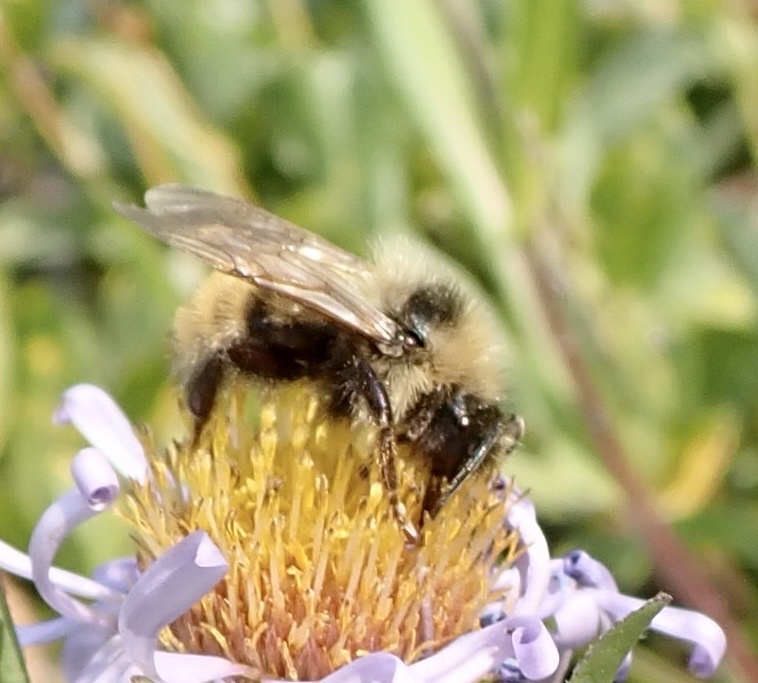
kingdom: Animalia
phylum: Arthropoda
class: Insecta
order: Hymenoptera
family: Apidae
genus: Bombus
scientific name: Bombus insularis
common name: Indiscriminate cuckoo bumble bee
